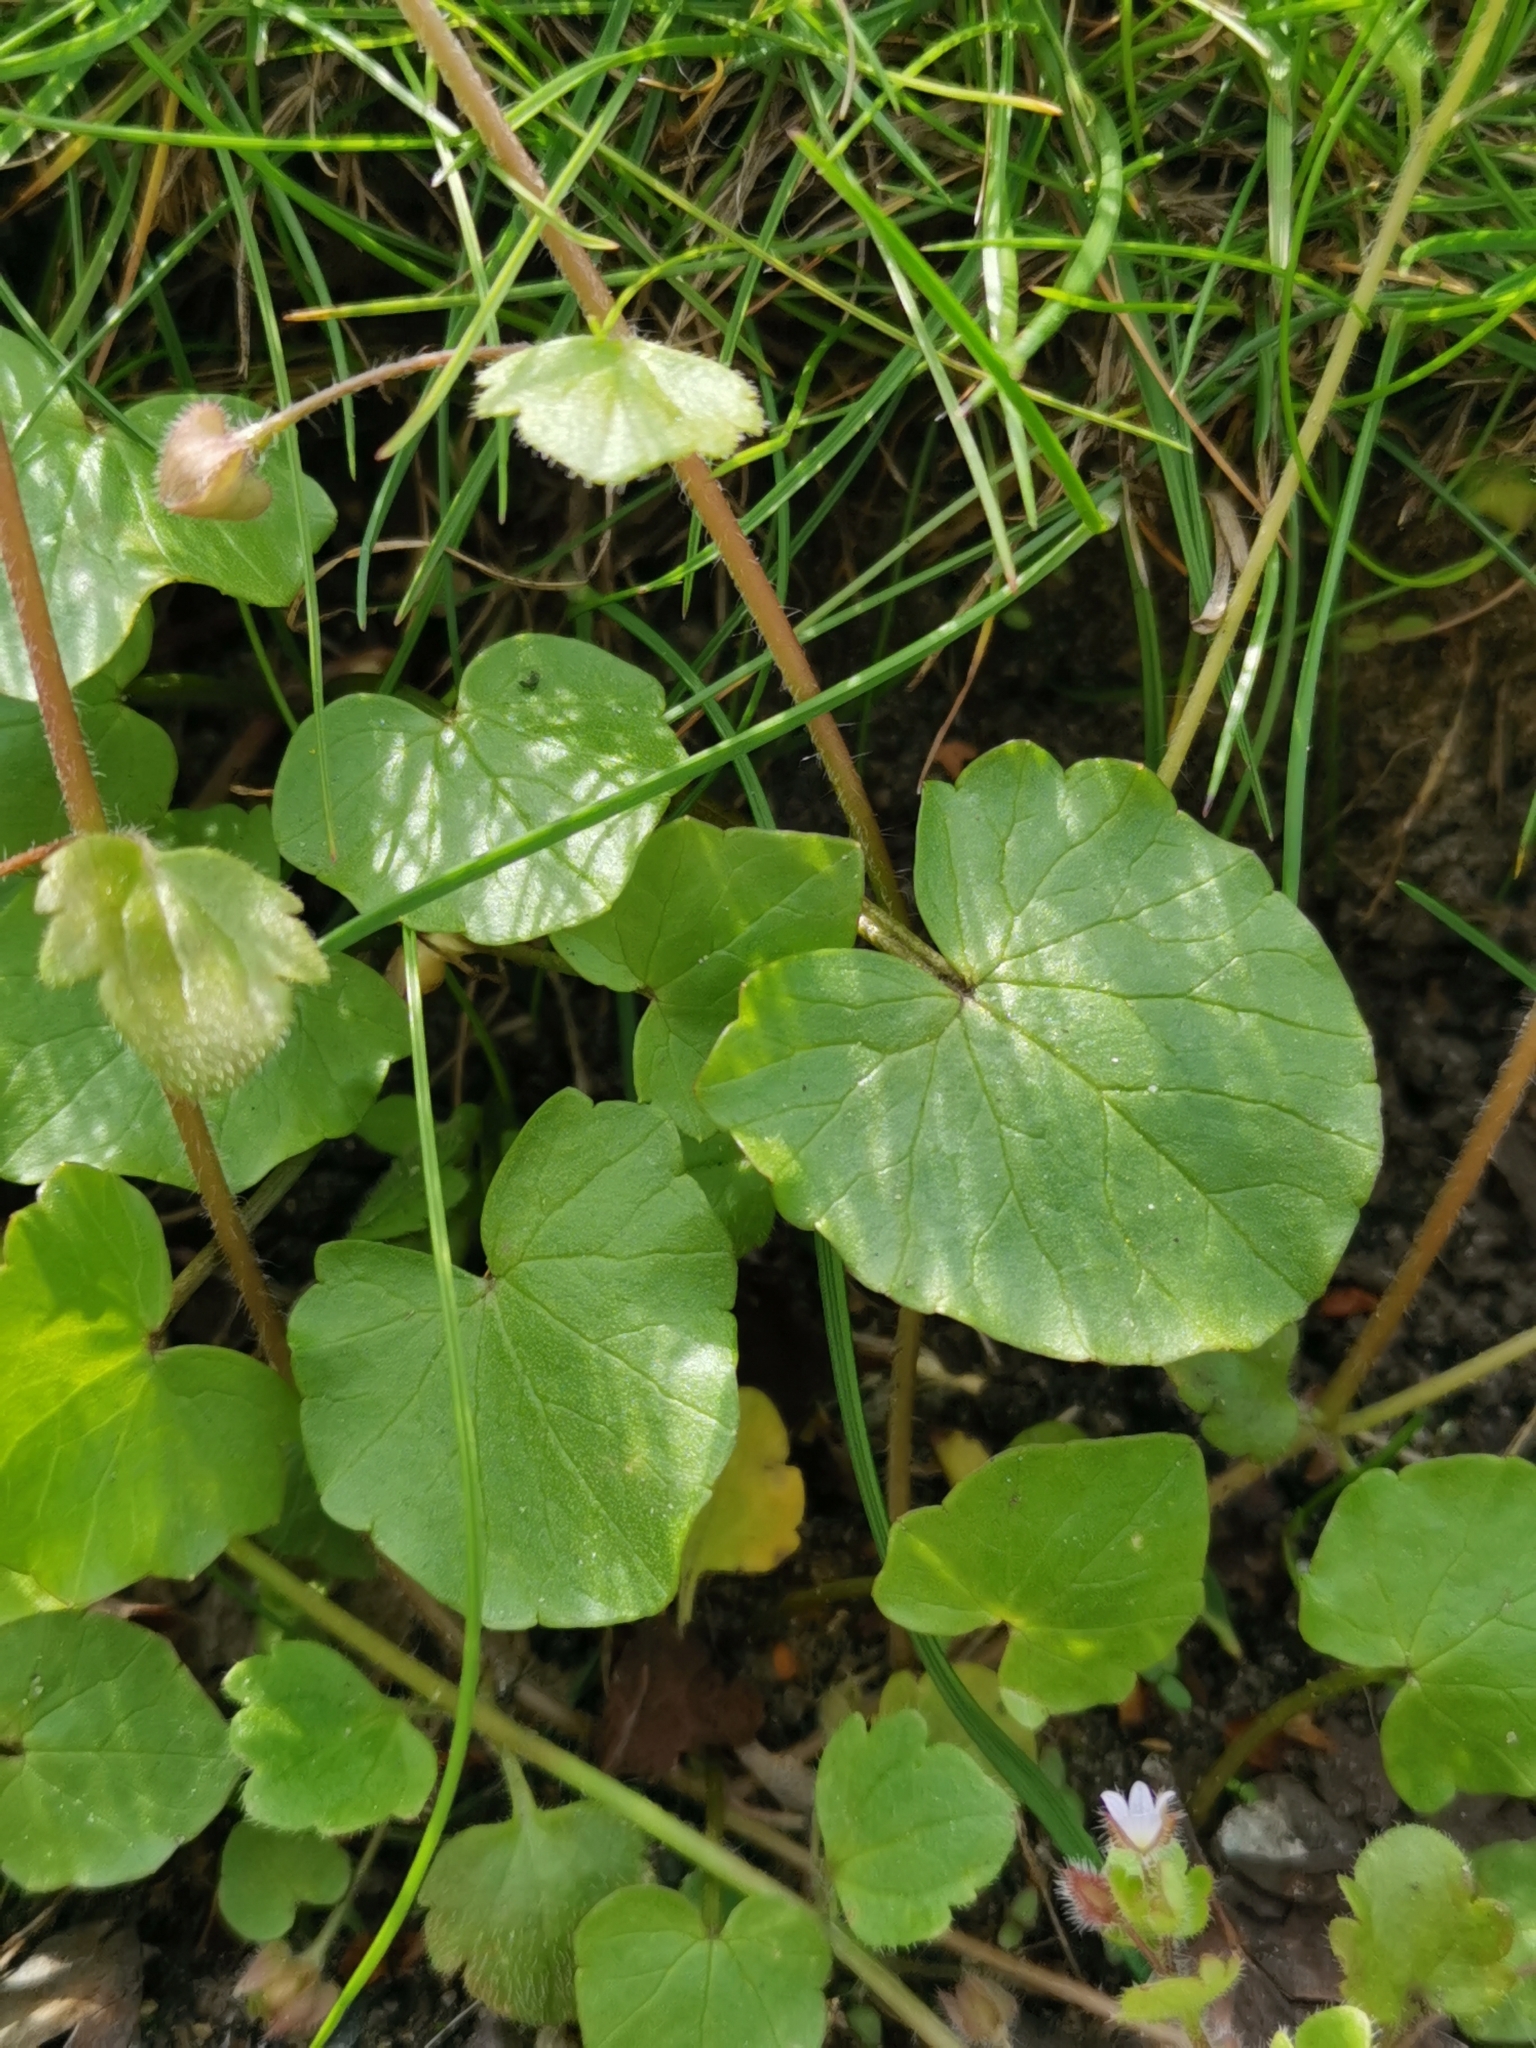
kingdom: Plantae
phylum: Tracheophyta
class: Magnoliopsida
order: Ranunculales
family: Ranunculaceae
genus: Ficaria
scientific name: Ficaria verna
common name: Lesser celandine
